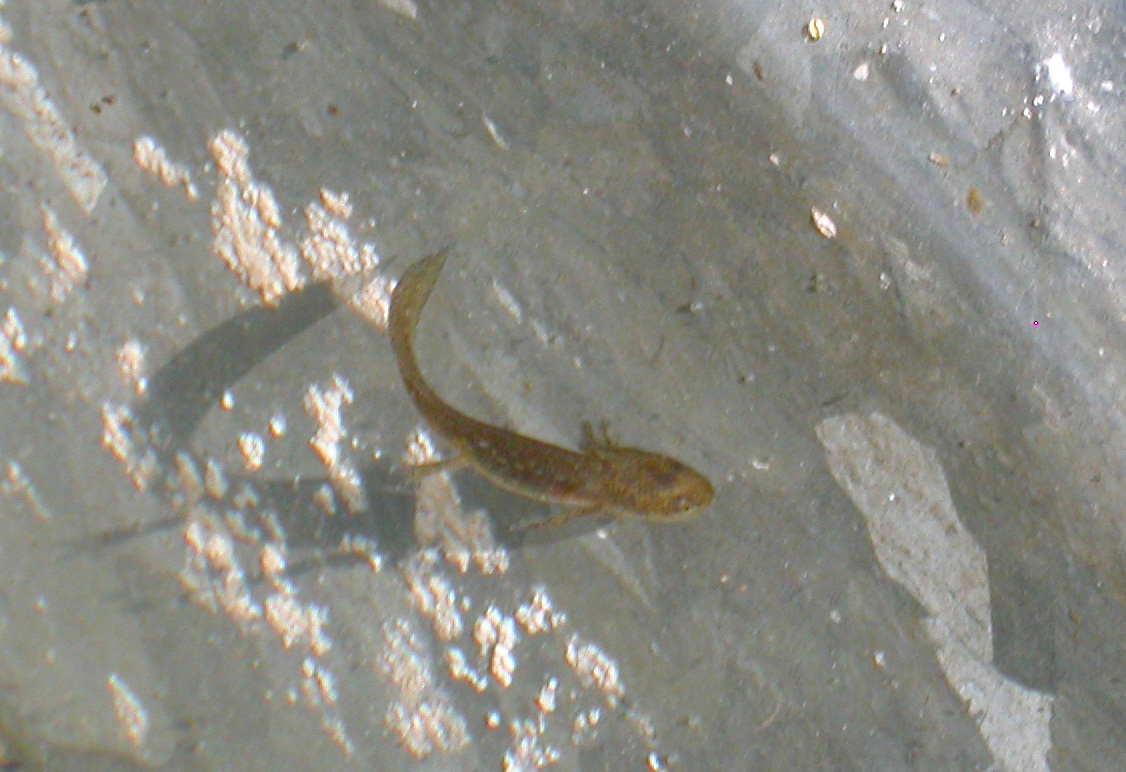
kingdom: Animalia
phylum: Chordata
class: Amphibia
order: Caudata
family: Salamandridae
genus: Lissotriton
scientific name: Lissotriton helveticus
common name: Palmate newt
